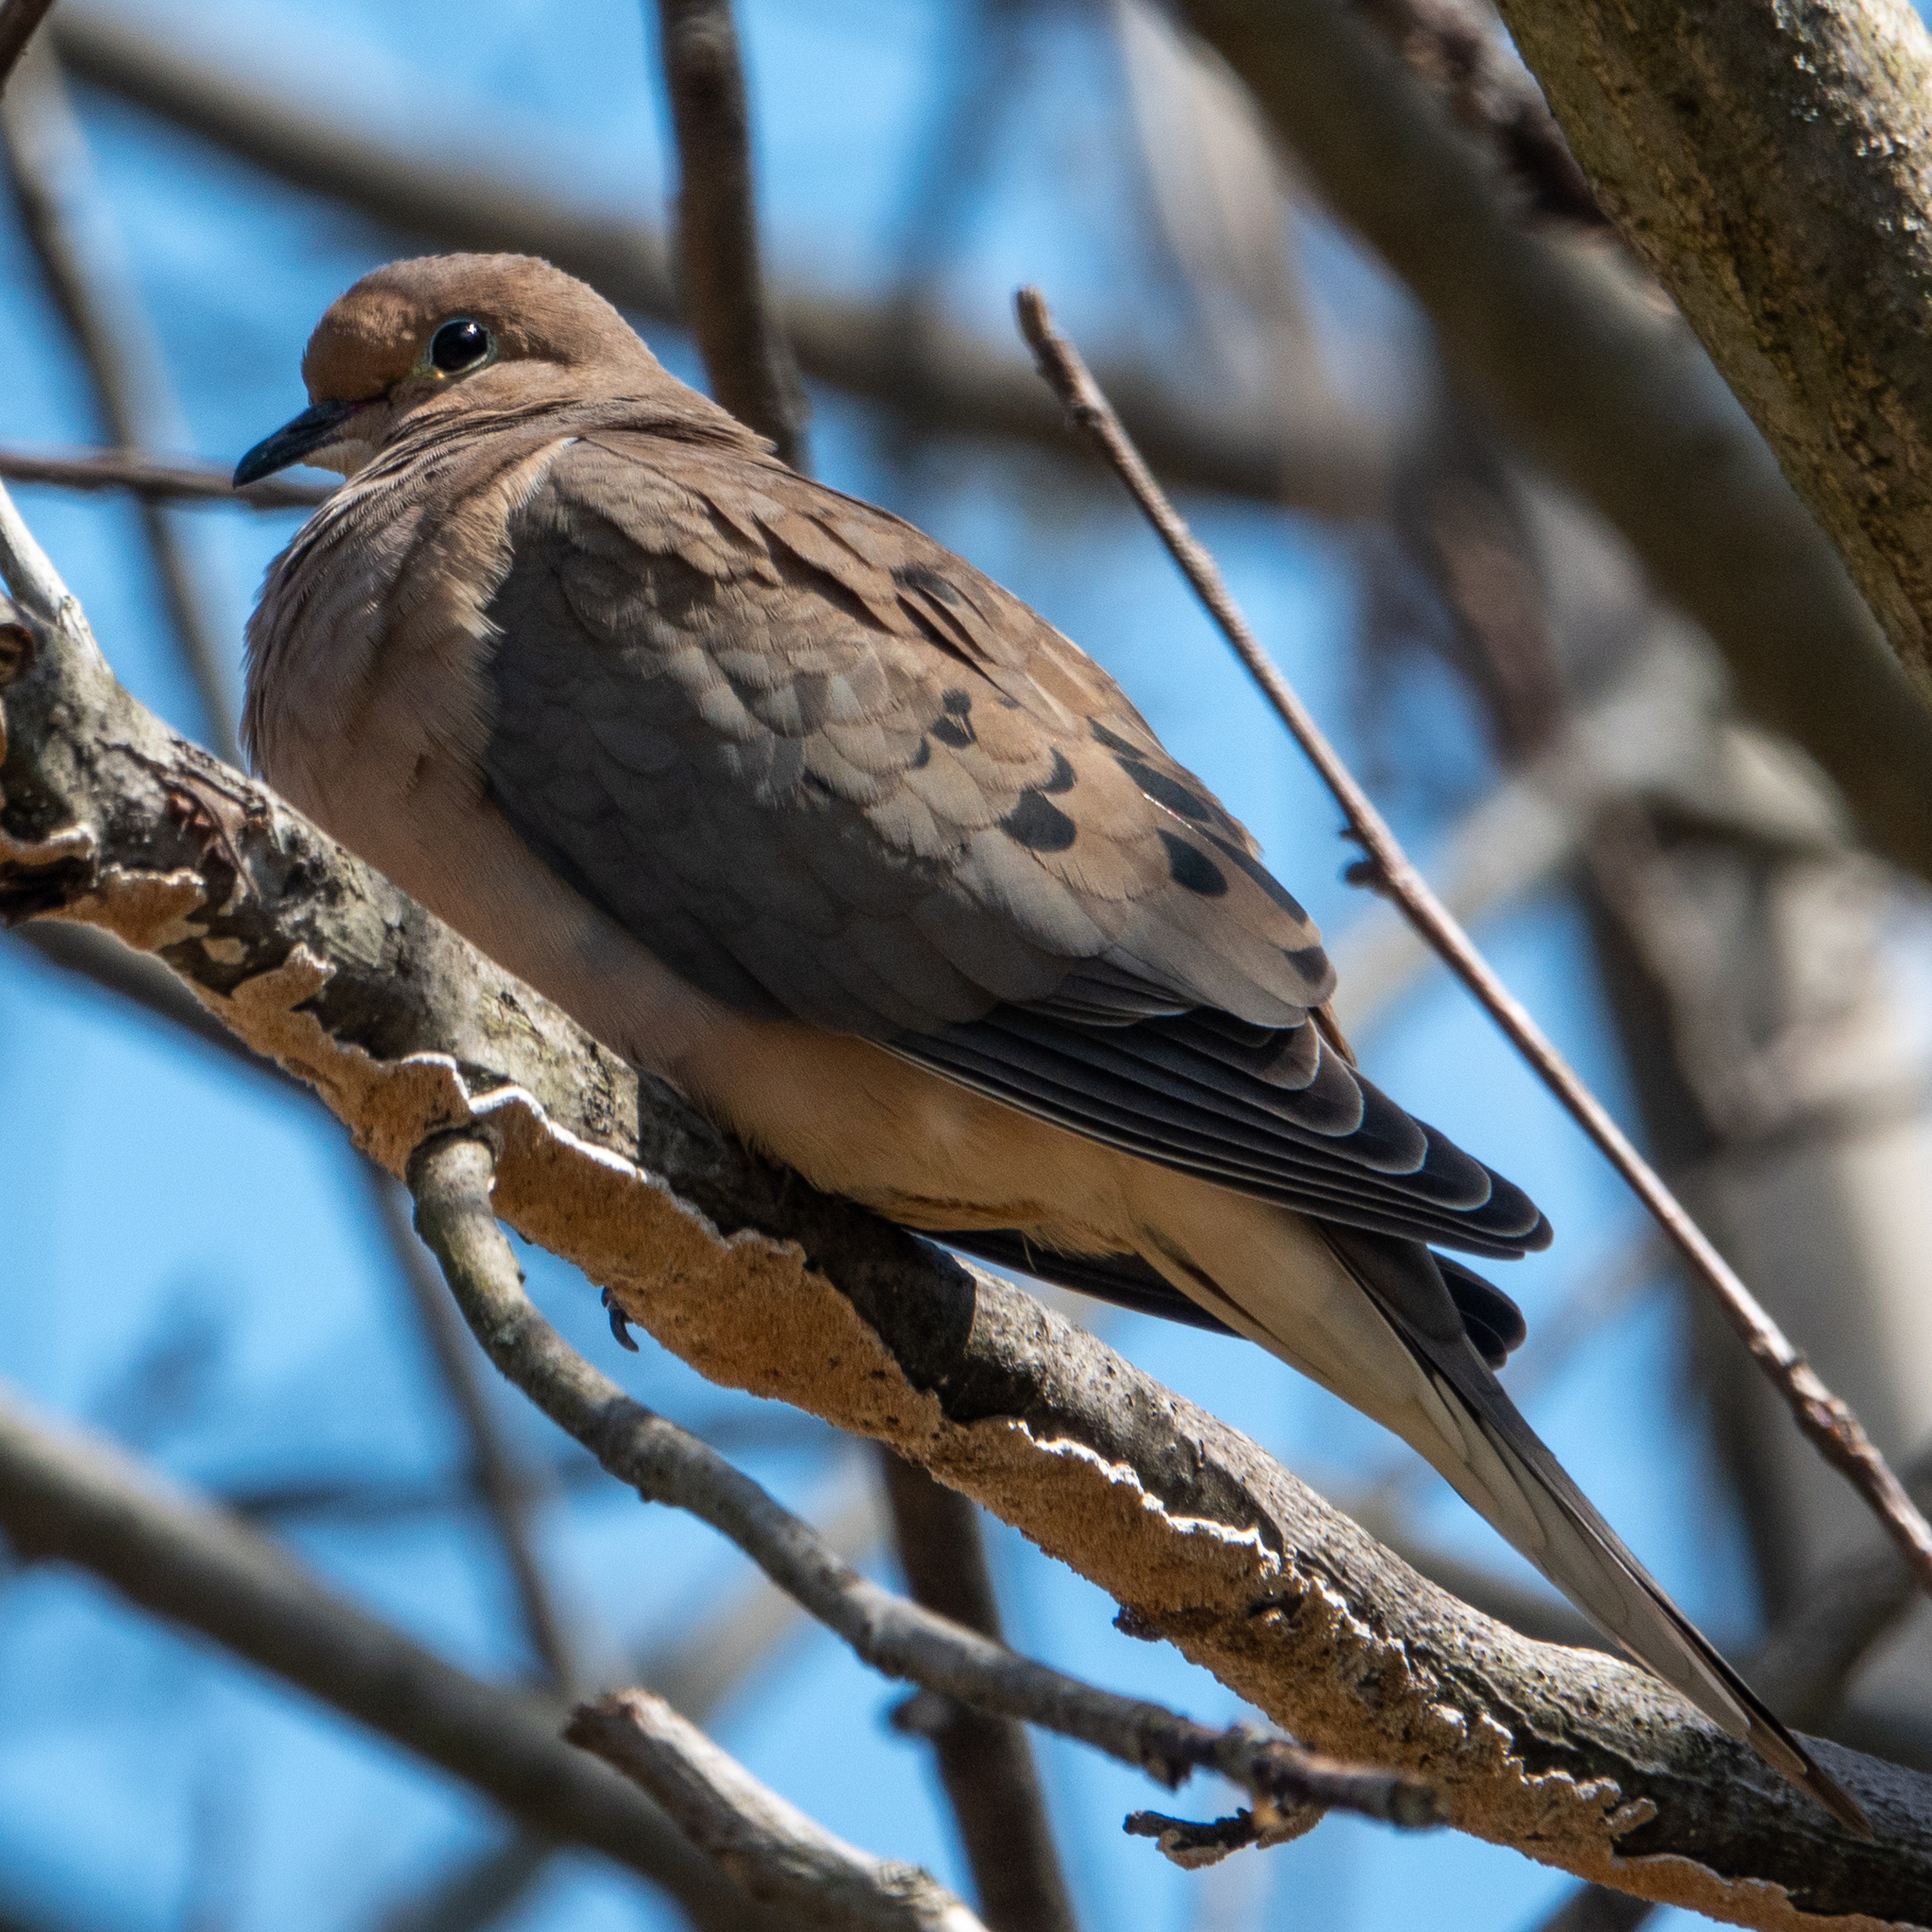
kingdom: Animalia
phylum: Chordata
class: Aves
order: Columbiformes
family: Columbidae
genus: Zenaida
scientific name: Zenaida macroura
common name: Mourning dove
